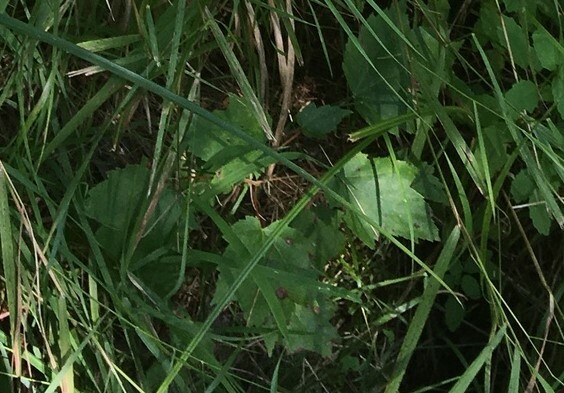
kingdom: Plantae
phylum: Tracheophyta
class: Magnoliopsida
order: Sapindales
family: Sapindaceae
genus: Acer
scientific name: Acer rubrum
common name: Red maple
